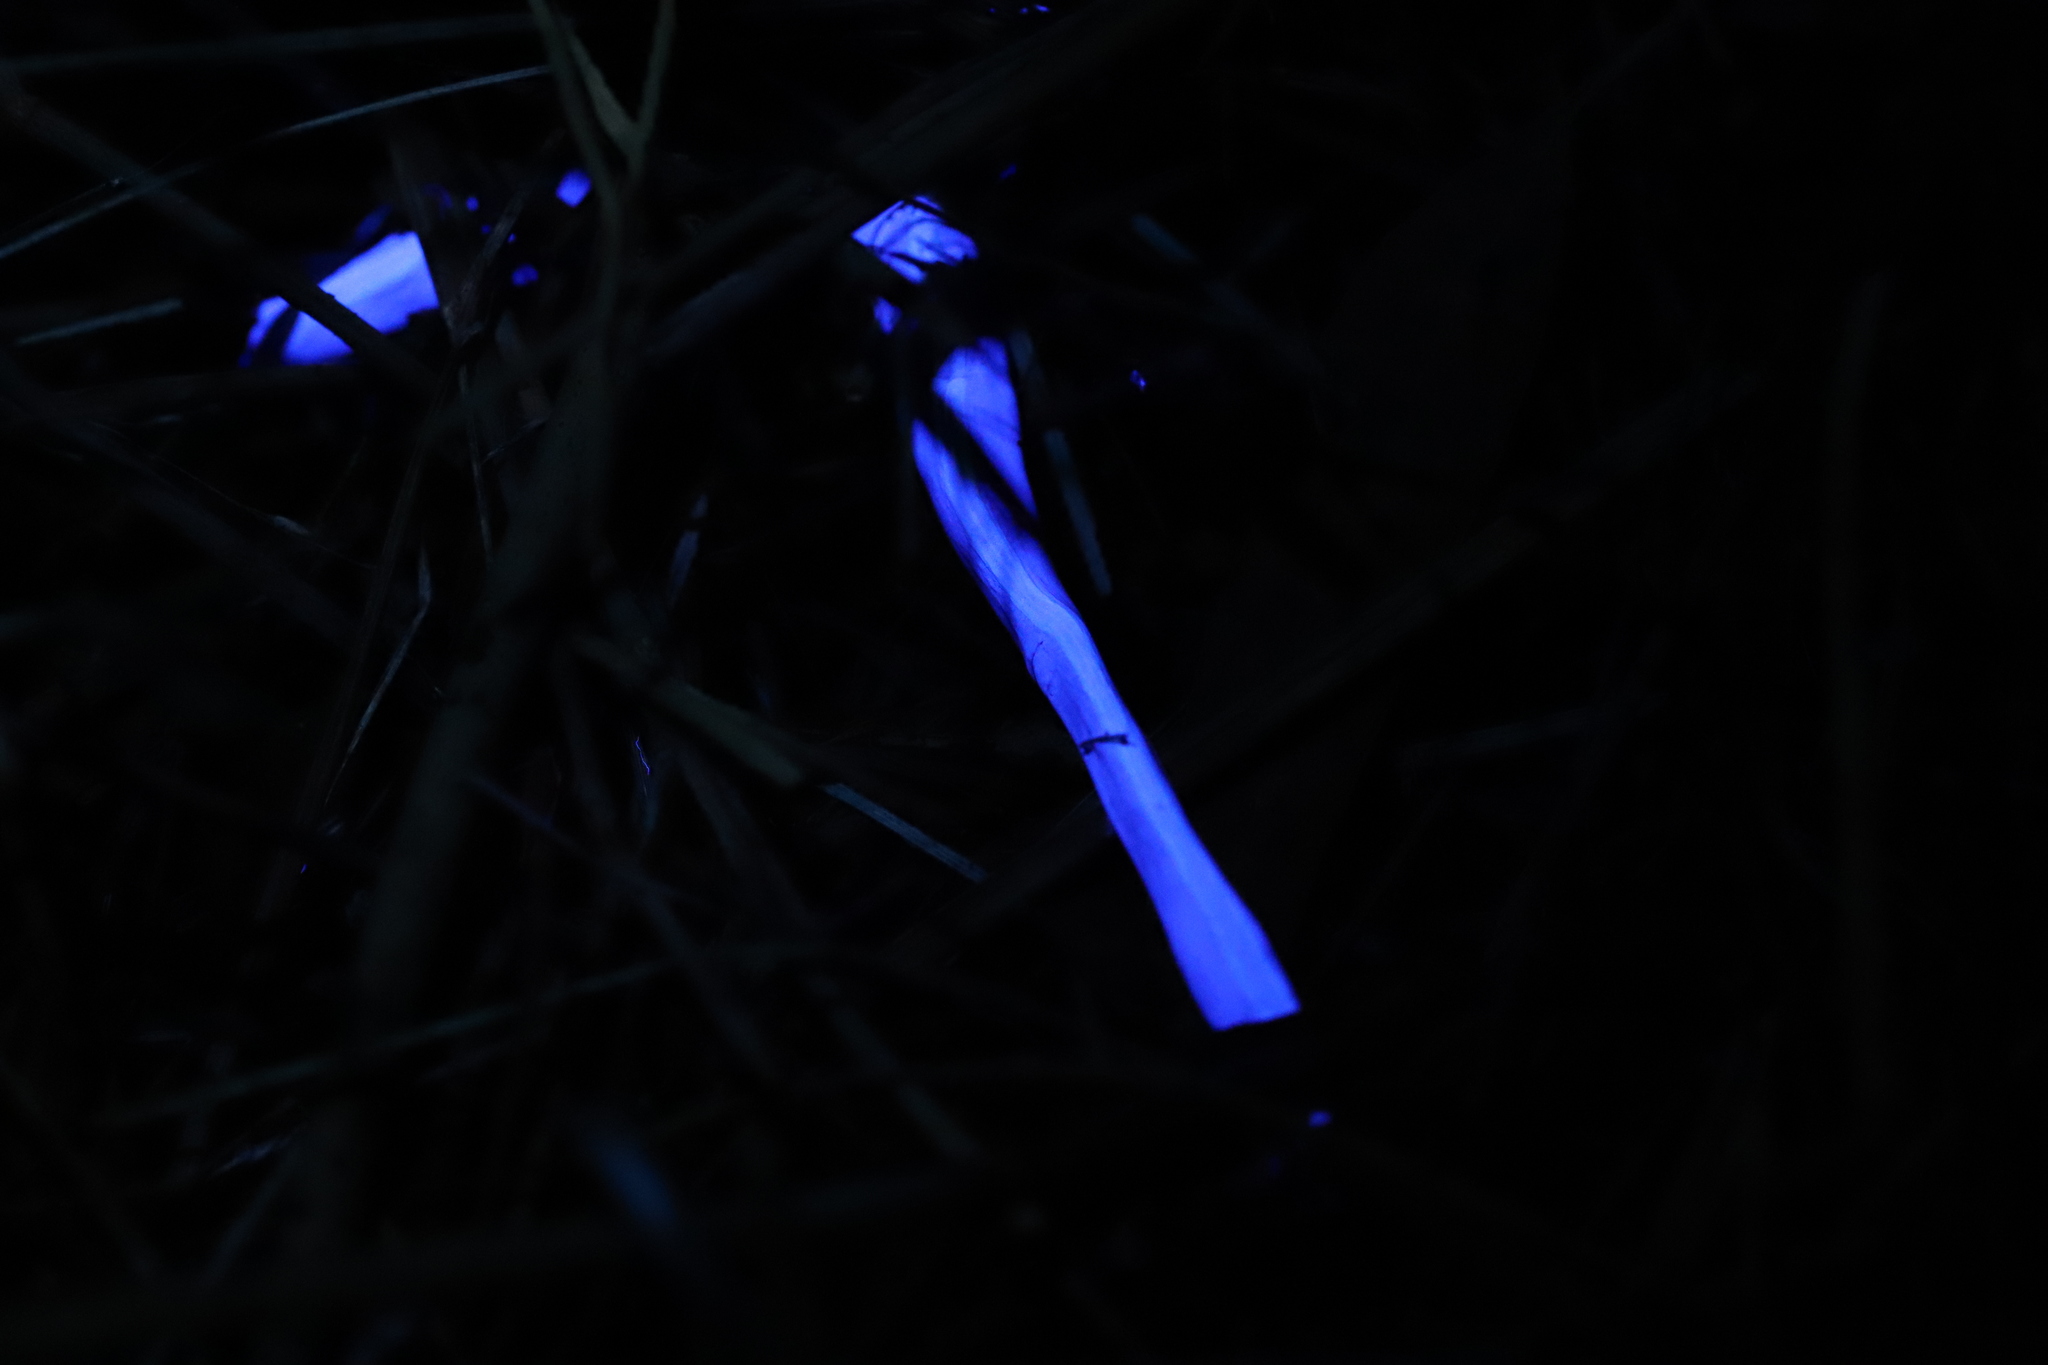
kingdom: Animalia
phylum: Platyhelminthes
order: Tricladida
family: Geoplanidae
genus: Caenoplana
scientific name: Caenoplana variegata
